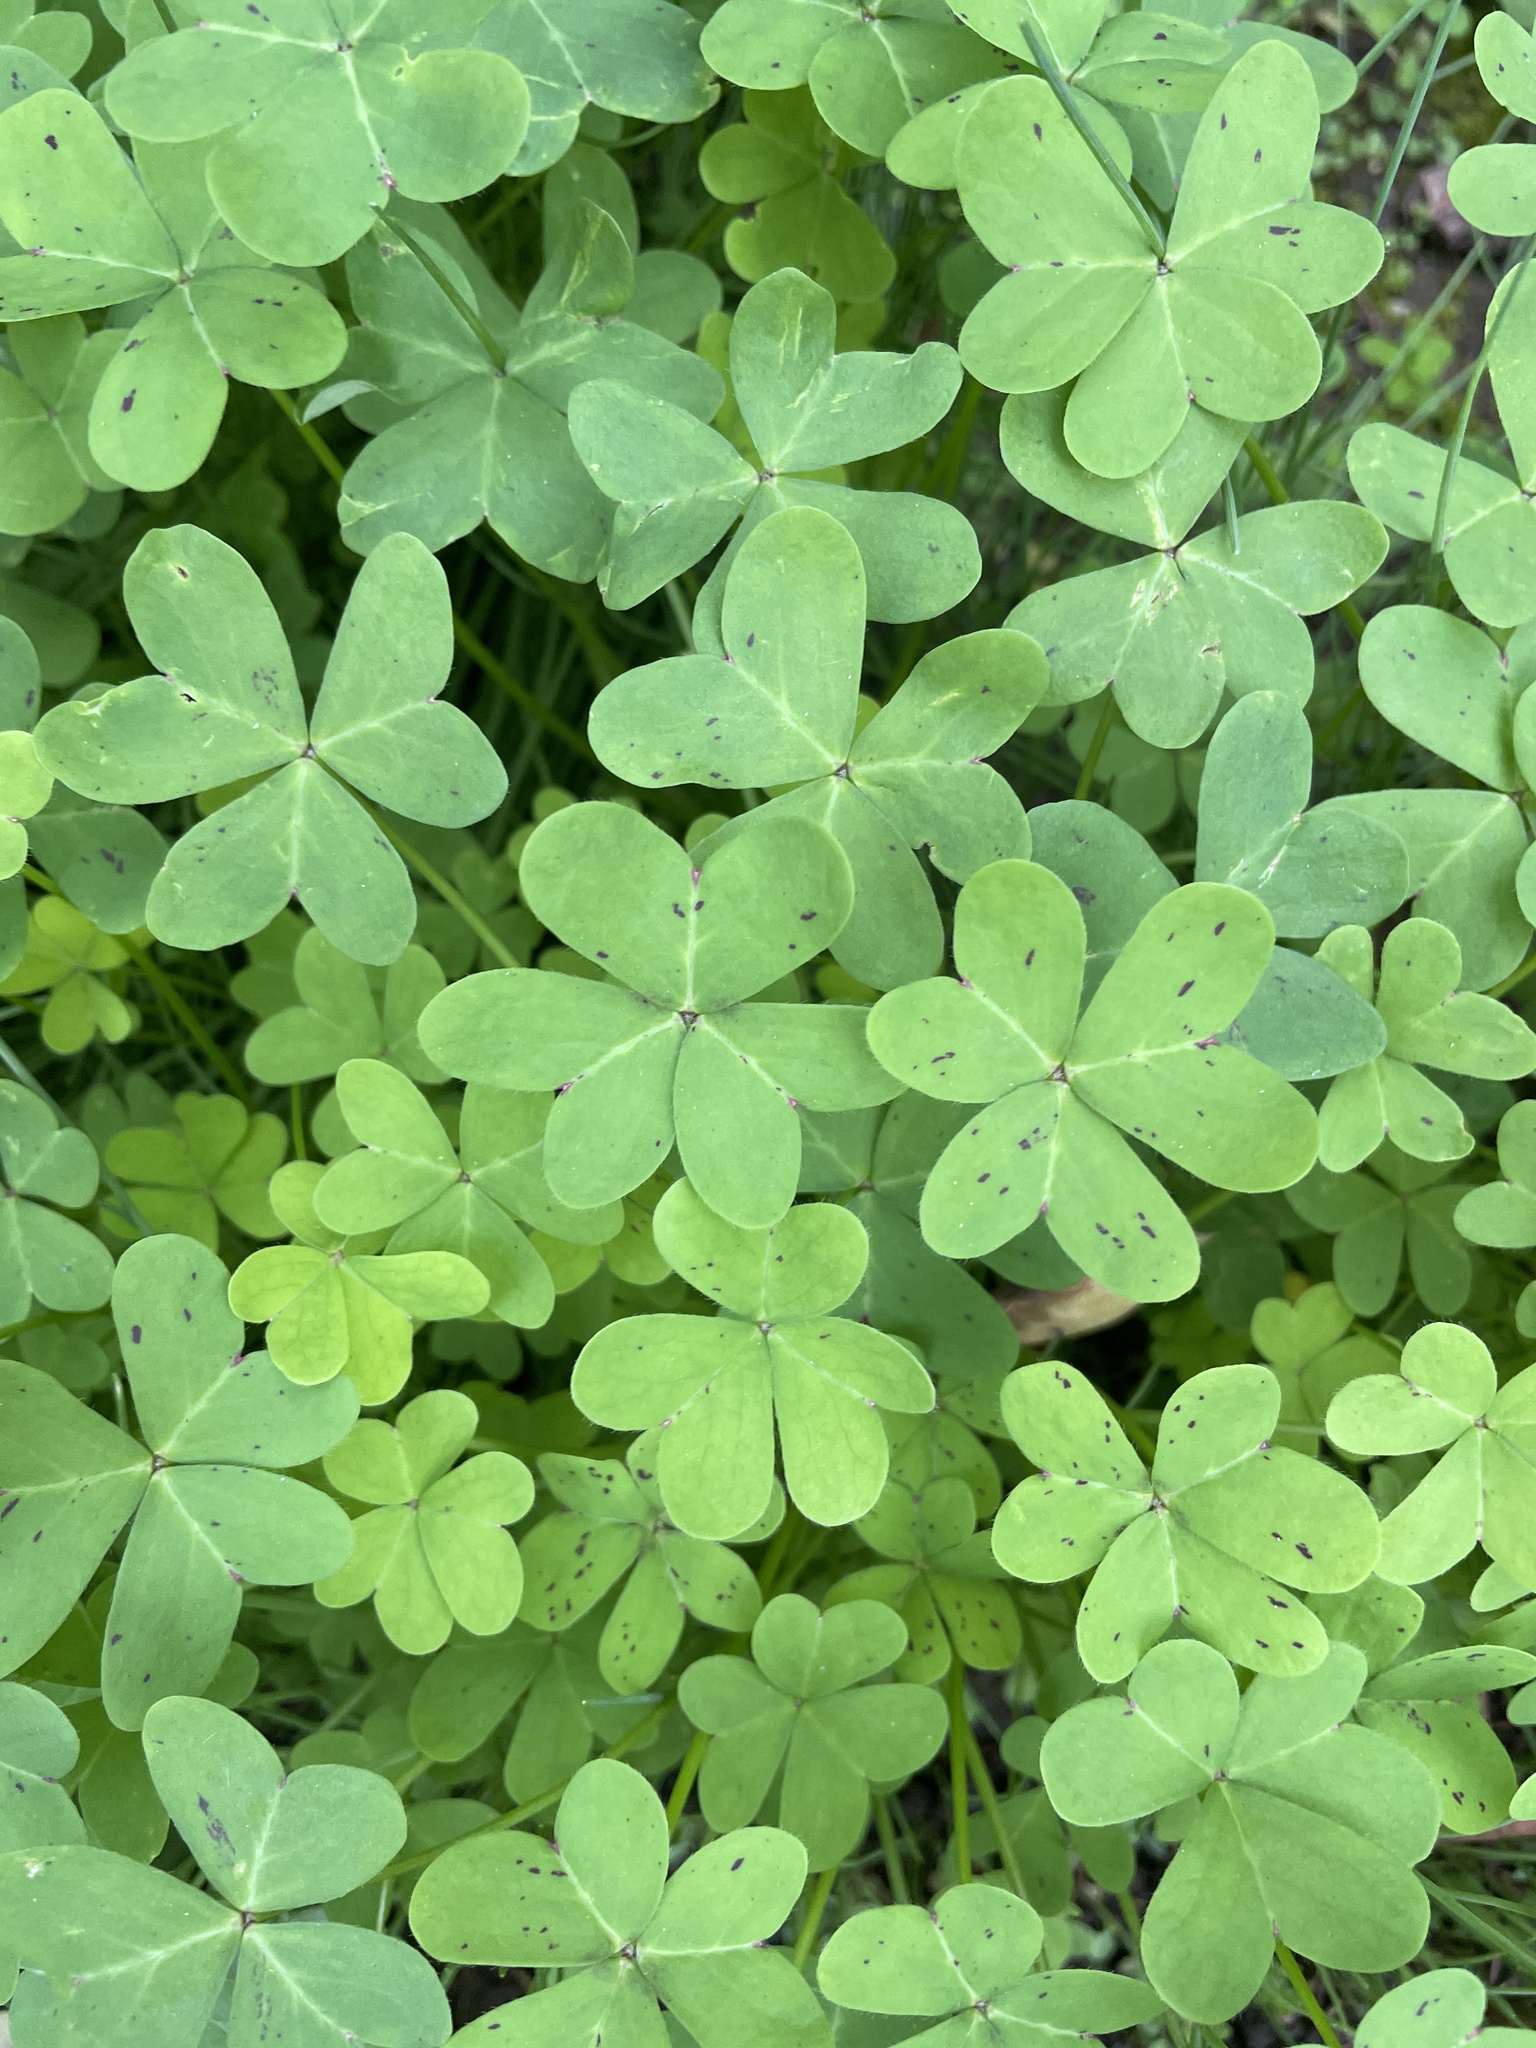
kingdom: Plantae
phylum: Tracheophyta
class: Magnoliopsida
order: Oxalidales
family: Oxalidaceae
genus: Oxalis
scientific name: Oxalis pes-caprae
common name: Bermuda-buttercup
